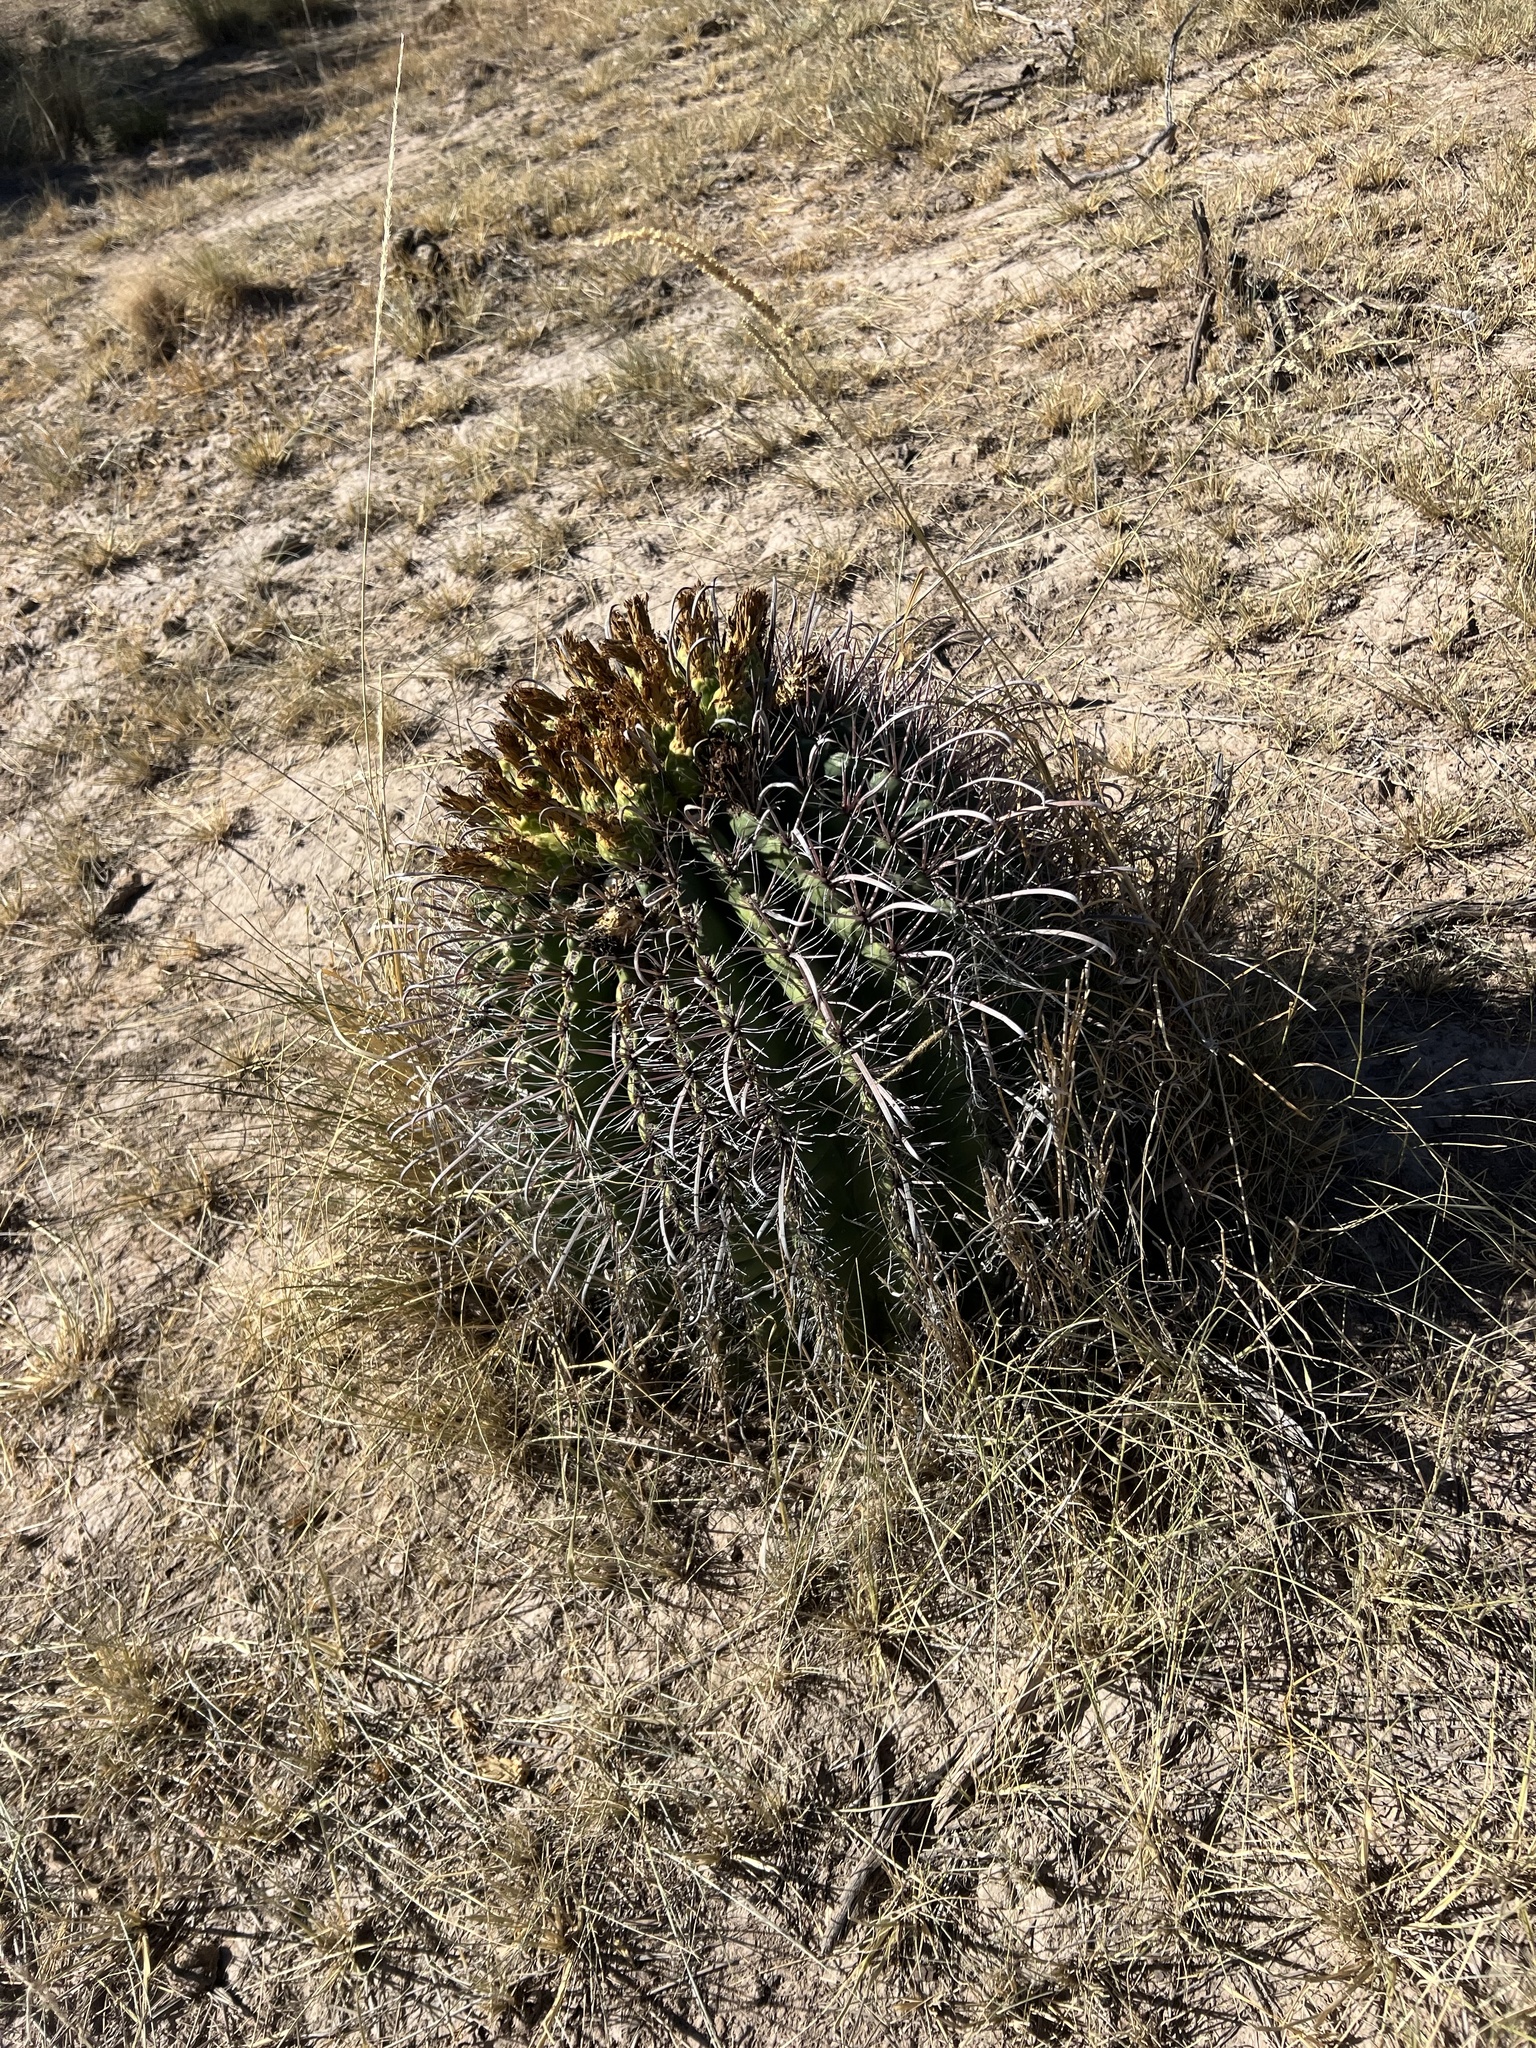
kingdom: Plantae
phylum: Tracheophyta
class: Magnoliopsida
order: Caryophyllales
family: Cactaceae
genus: Ferocactus
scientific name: Ferocactus wislizeni
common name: Candy barrel cactus
